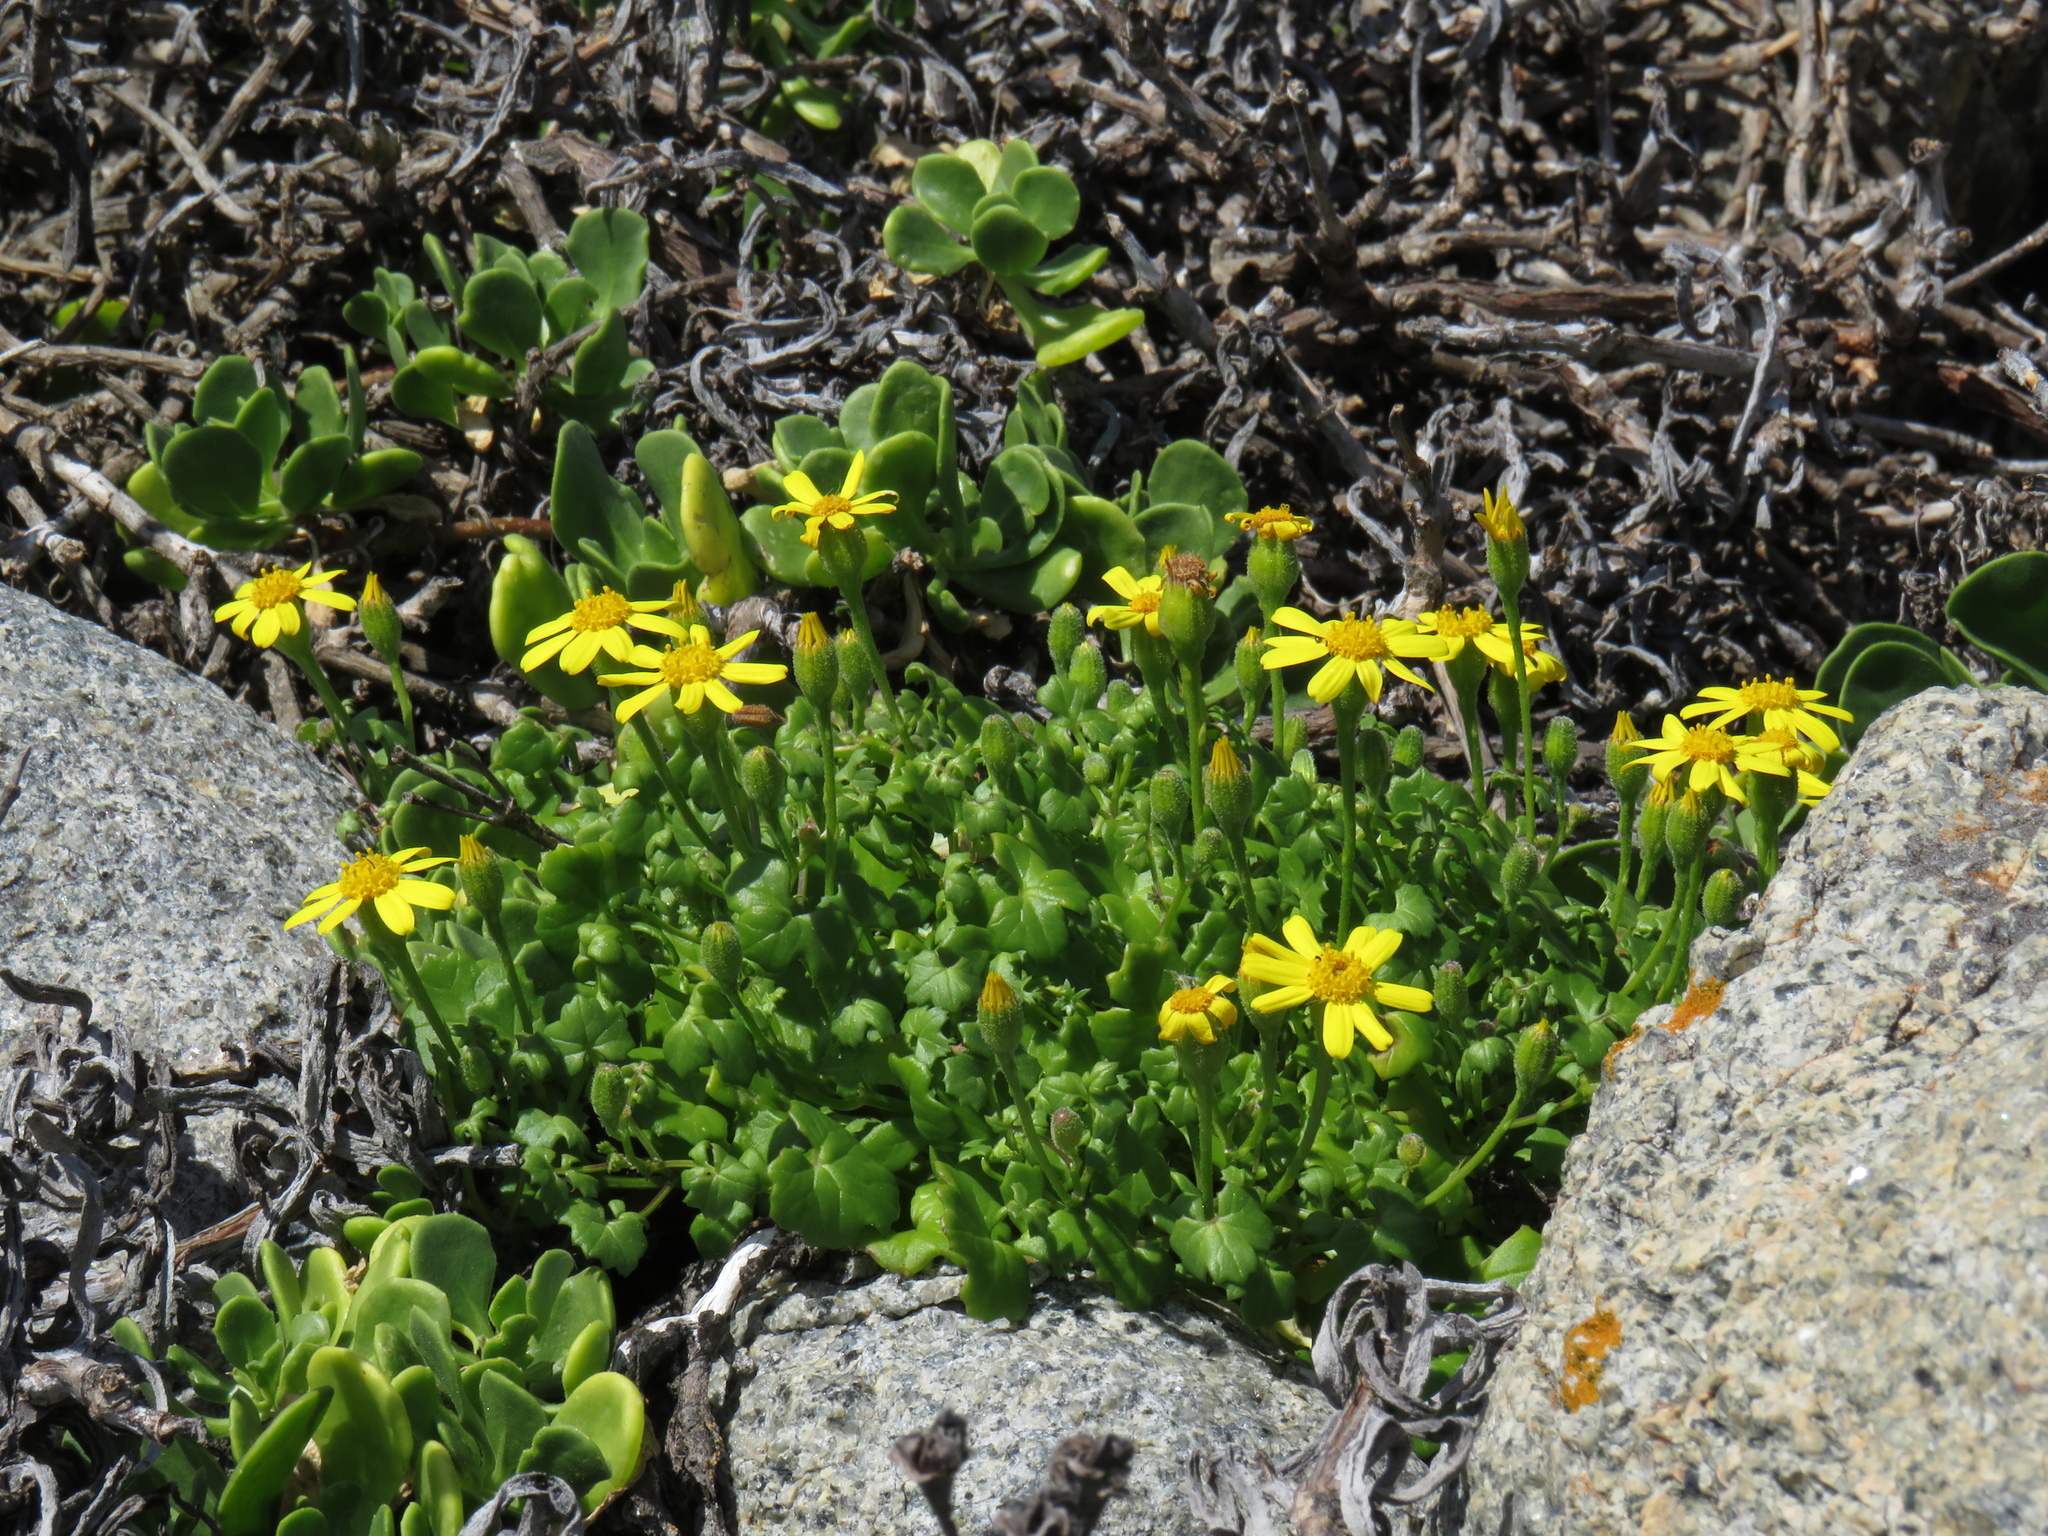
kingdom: Plantae
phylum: Tracheophyta
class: Magnoliopsida
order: Asterales
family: Asteraceae
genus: Cineraria
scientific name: Cineraria angulosa
